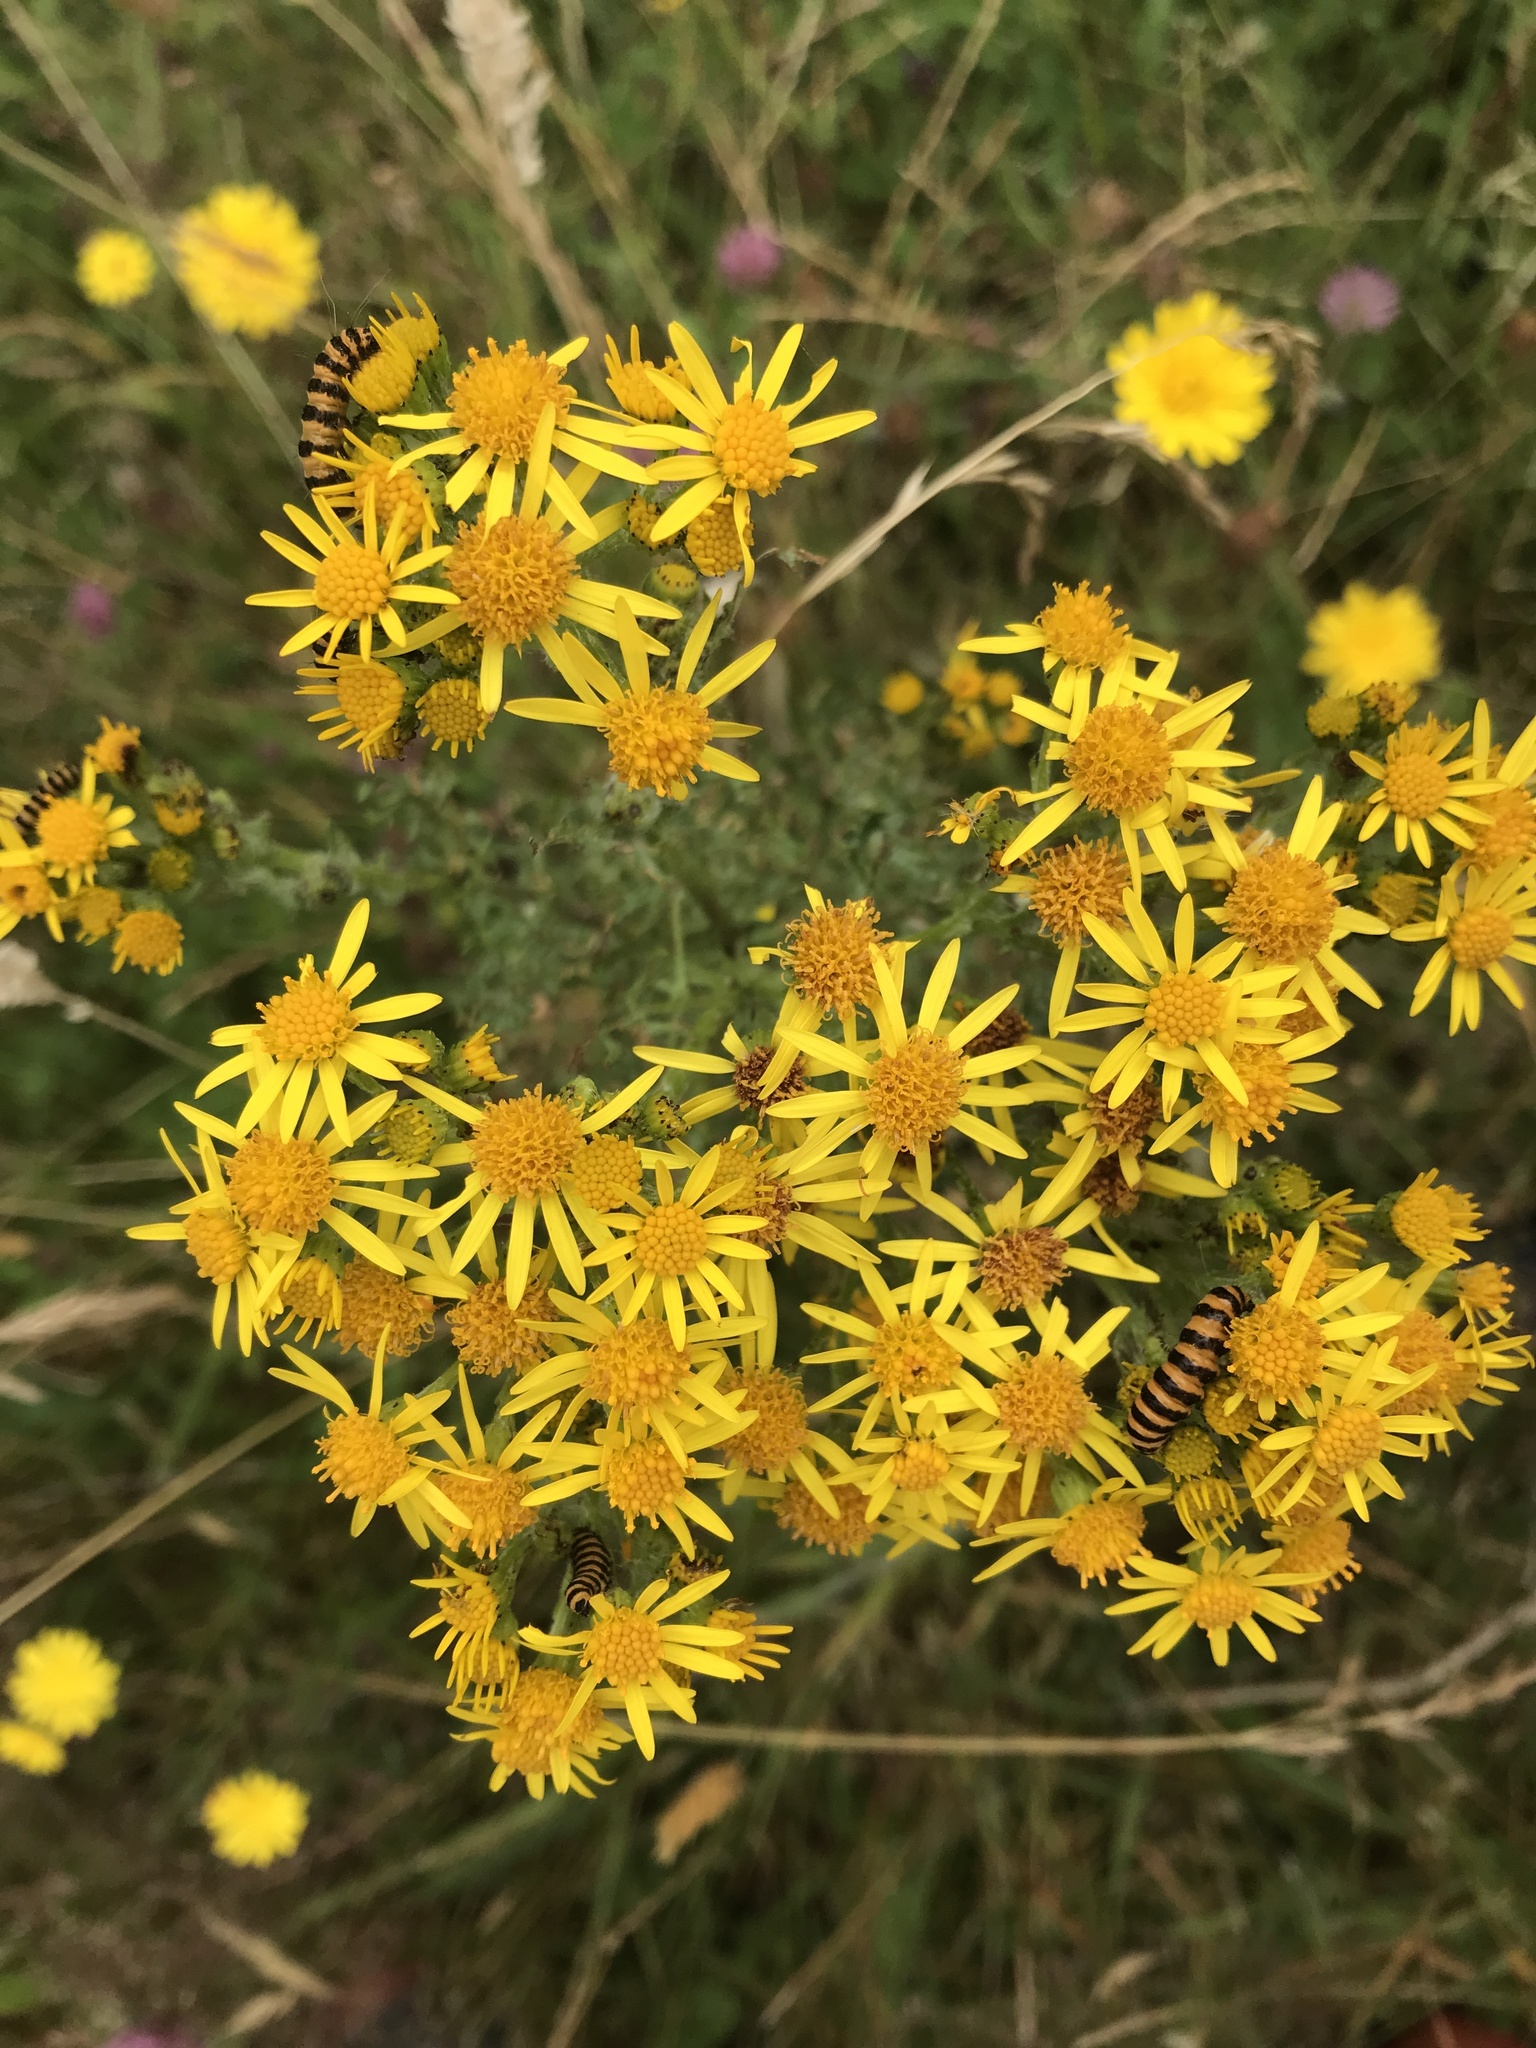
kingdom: Plantae
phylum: Tracheophyta
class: Magnoliopsida
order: Asterales
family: Asteraceae
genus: Jacobaea
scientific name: Jacobaea vulgaris
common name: Stinking willie
